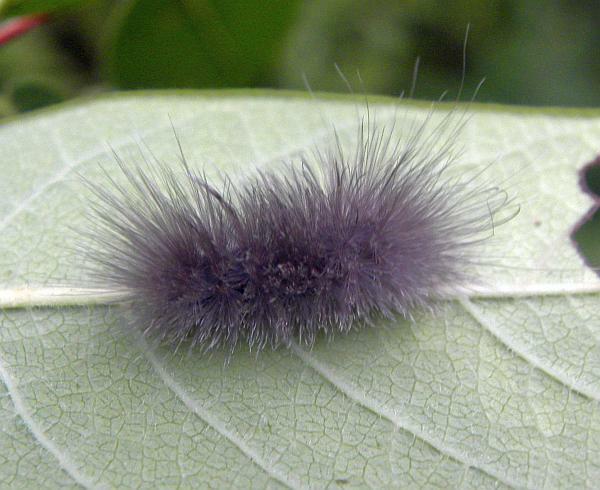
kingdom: Animalia
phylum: Arthropoda
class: Insecta
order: Lepidoptera
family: Erebidae
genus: Cycnia
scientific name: Cycnia tenera
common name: Delicate cycnia moth
